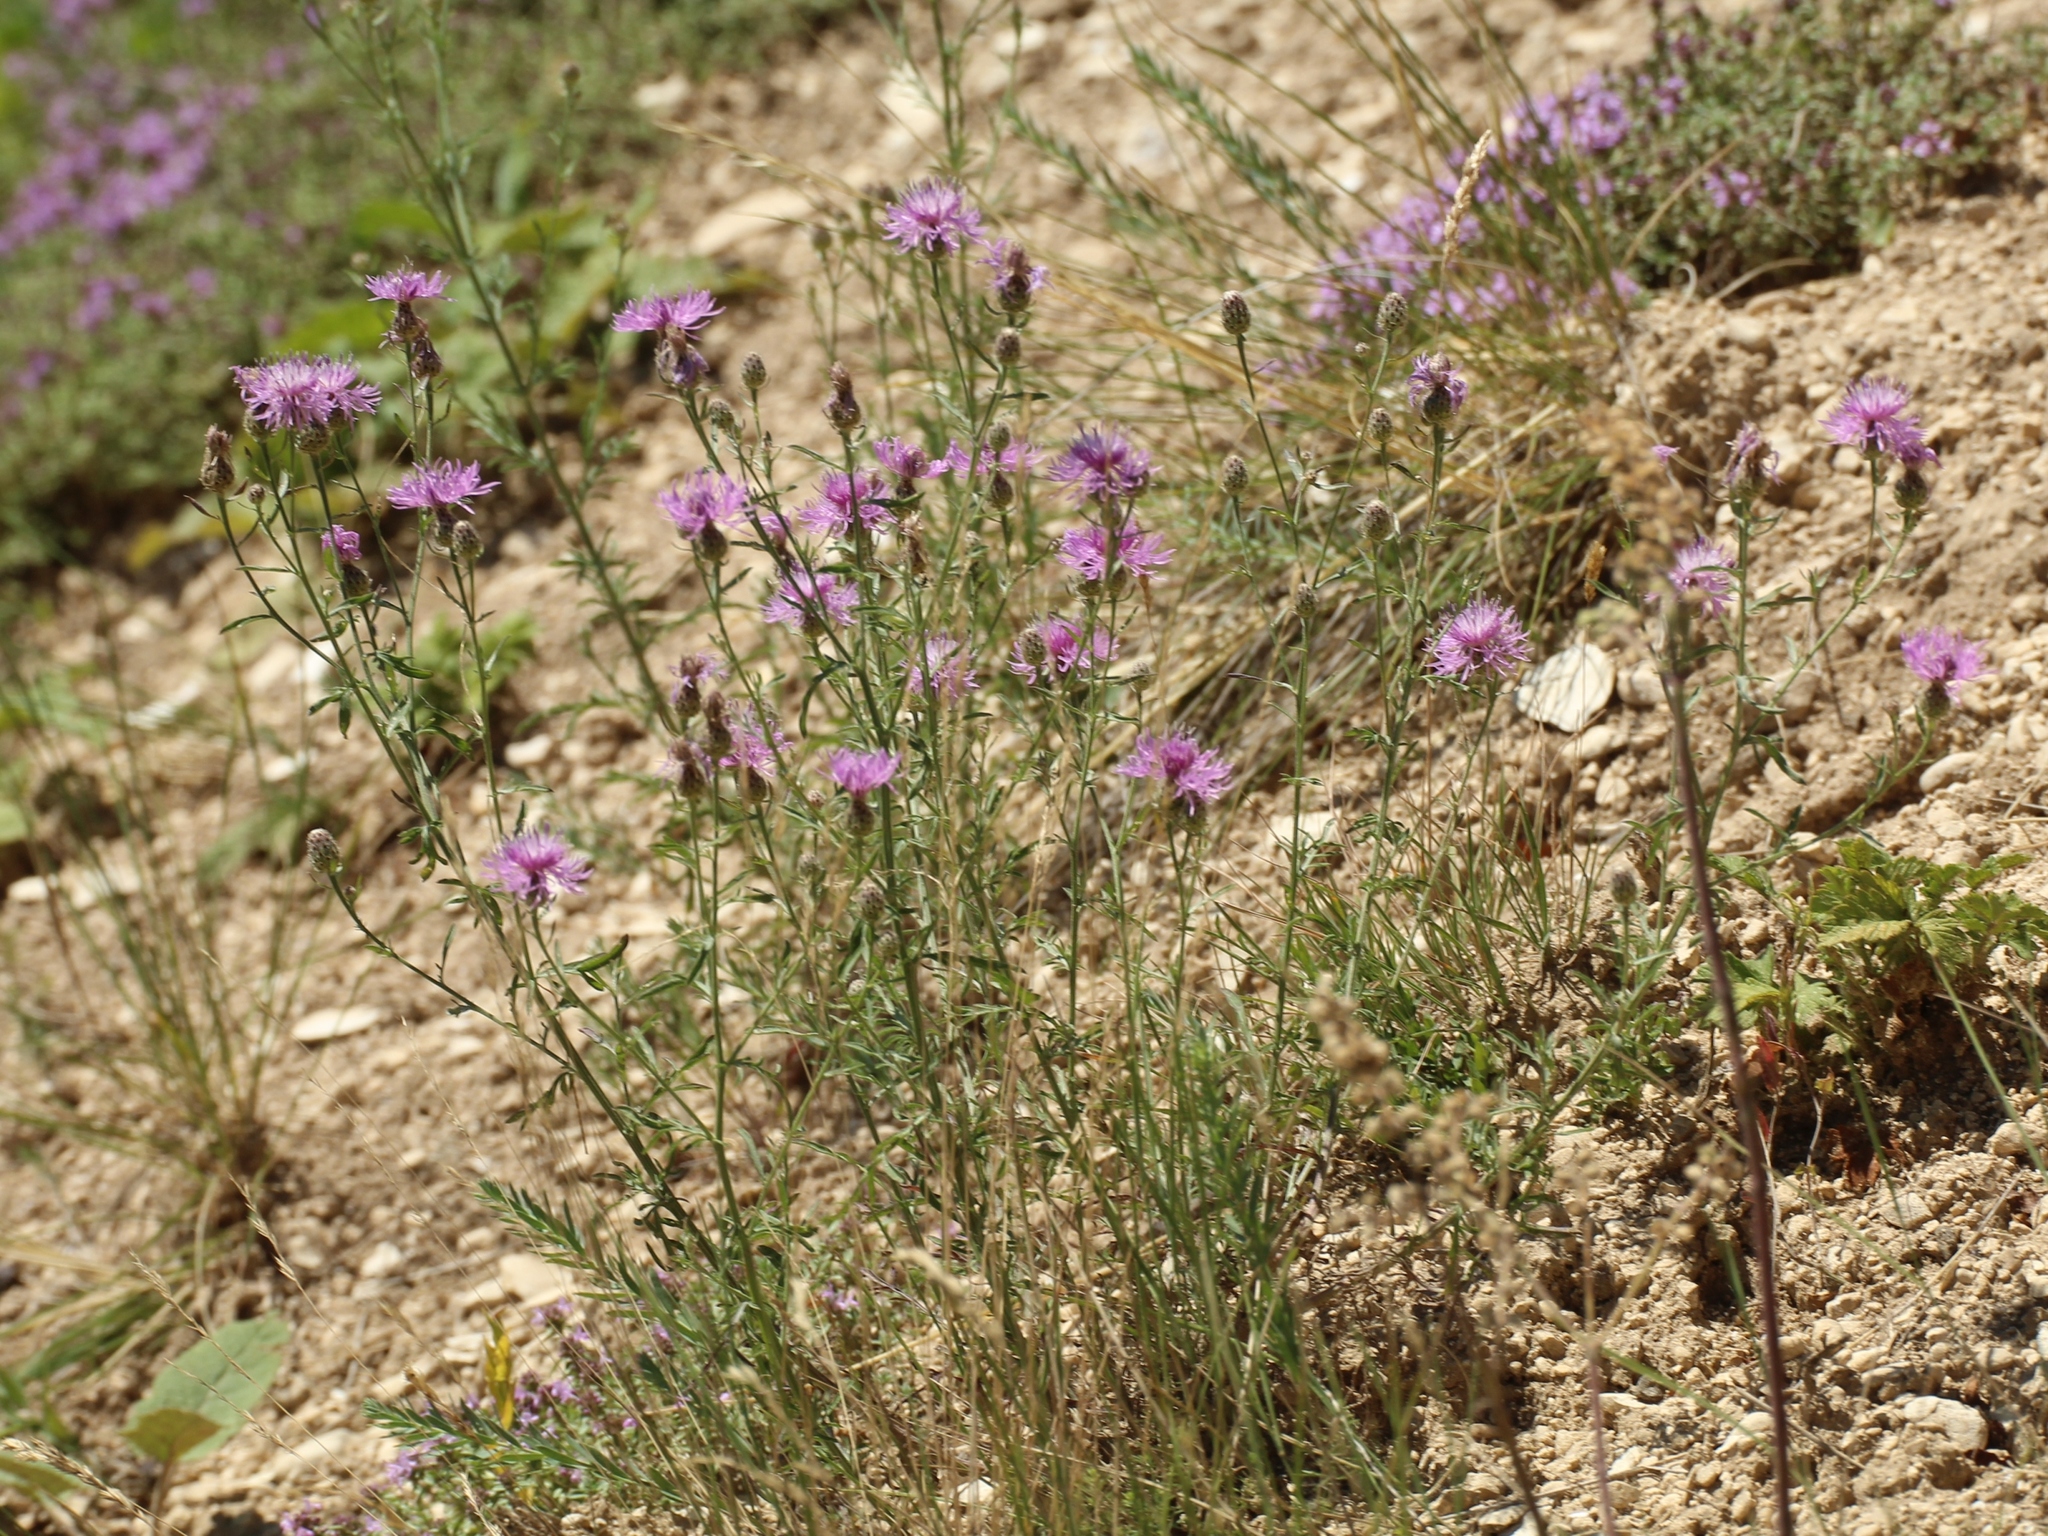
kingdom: Plantae
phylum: Tracheophyta
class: Magnoliopsida
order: Asterales
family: Asteraceae
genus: Centaurea
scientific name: Centaurea stoebe
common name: Spotted knapweed
